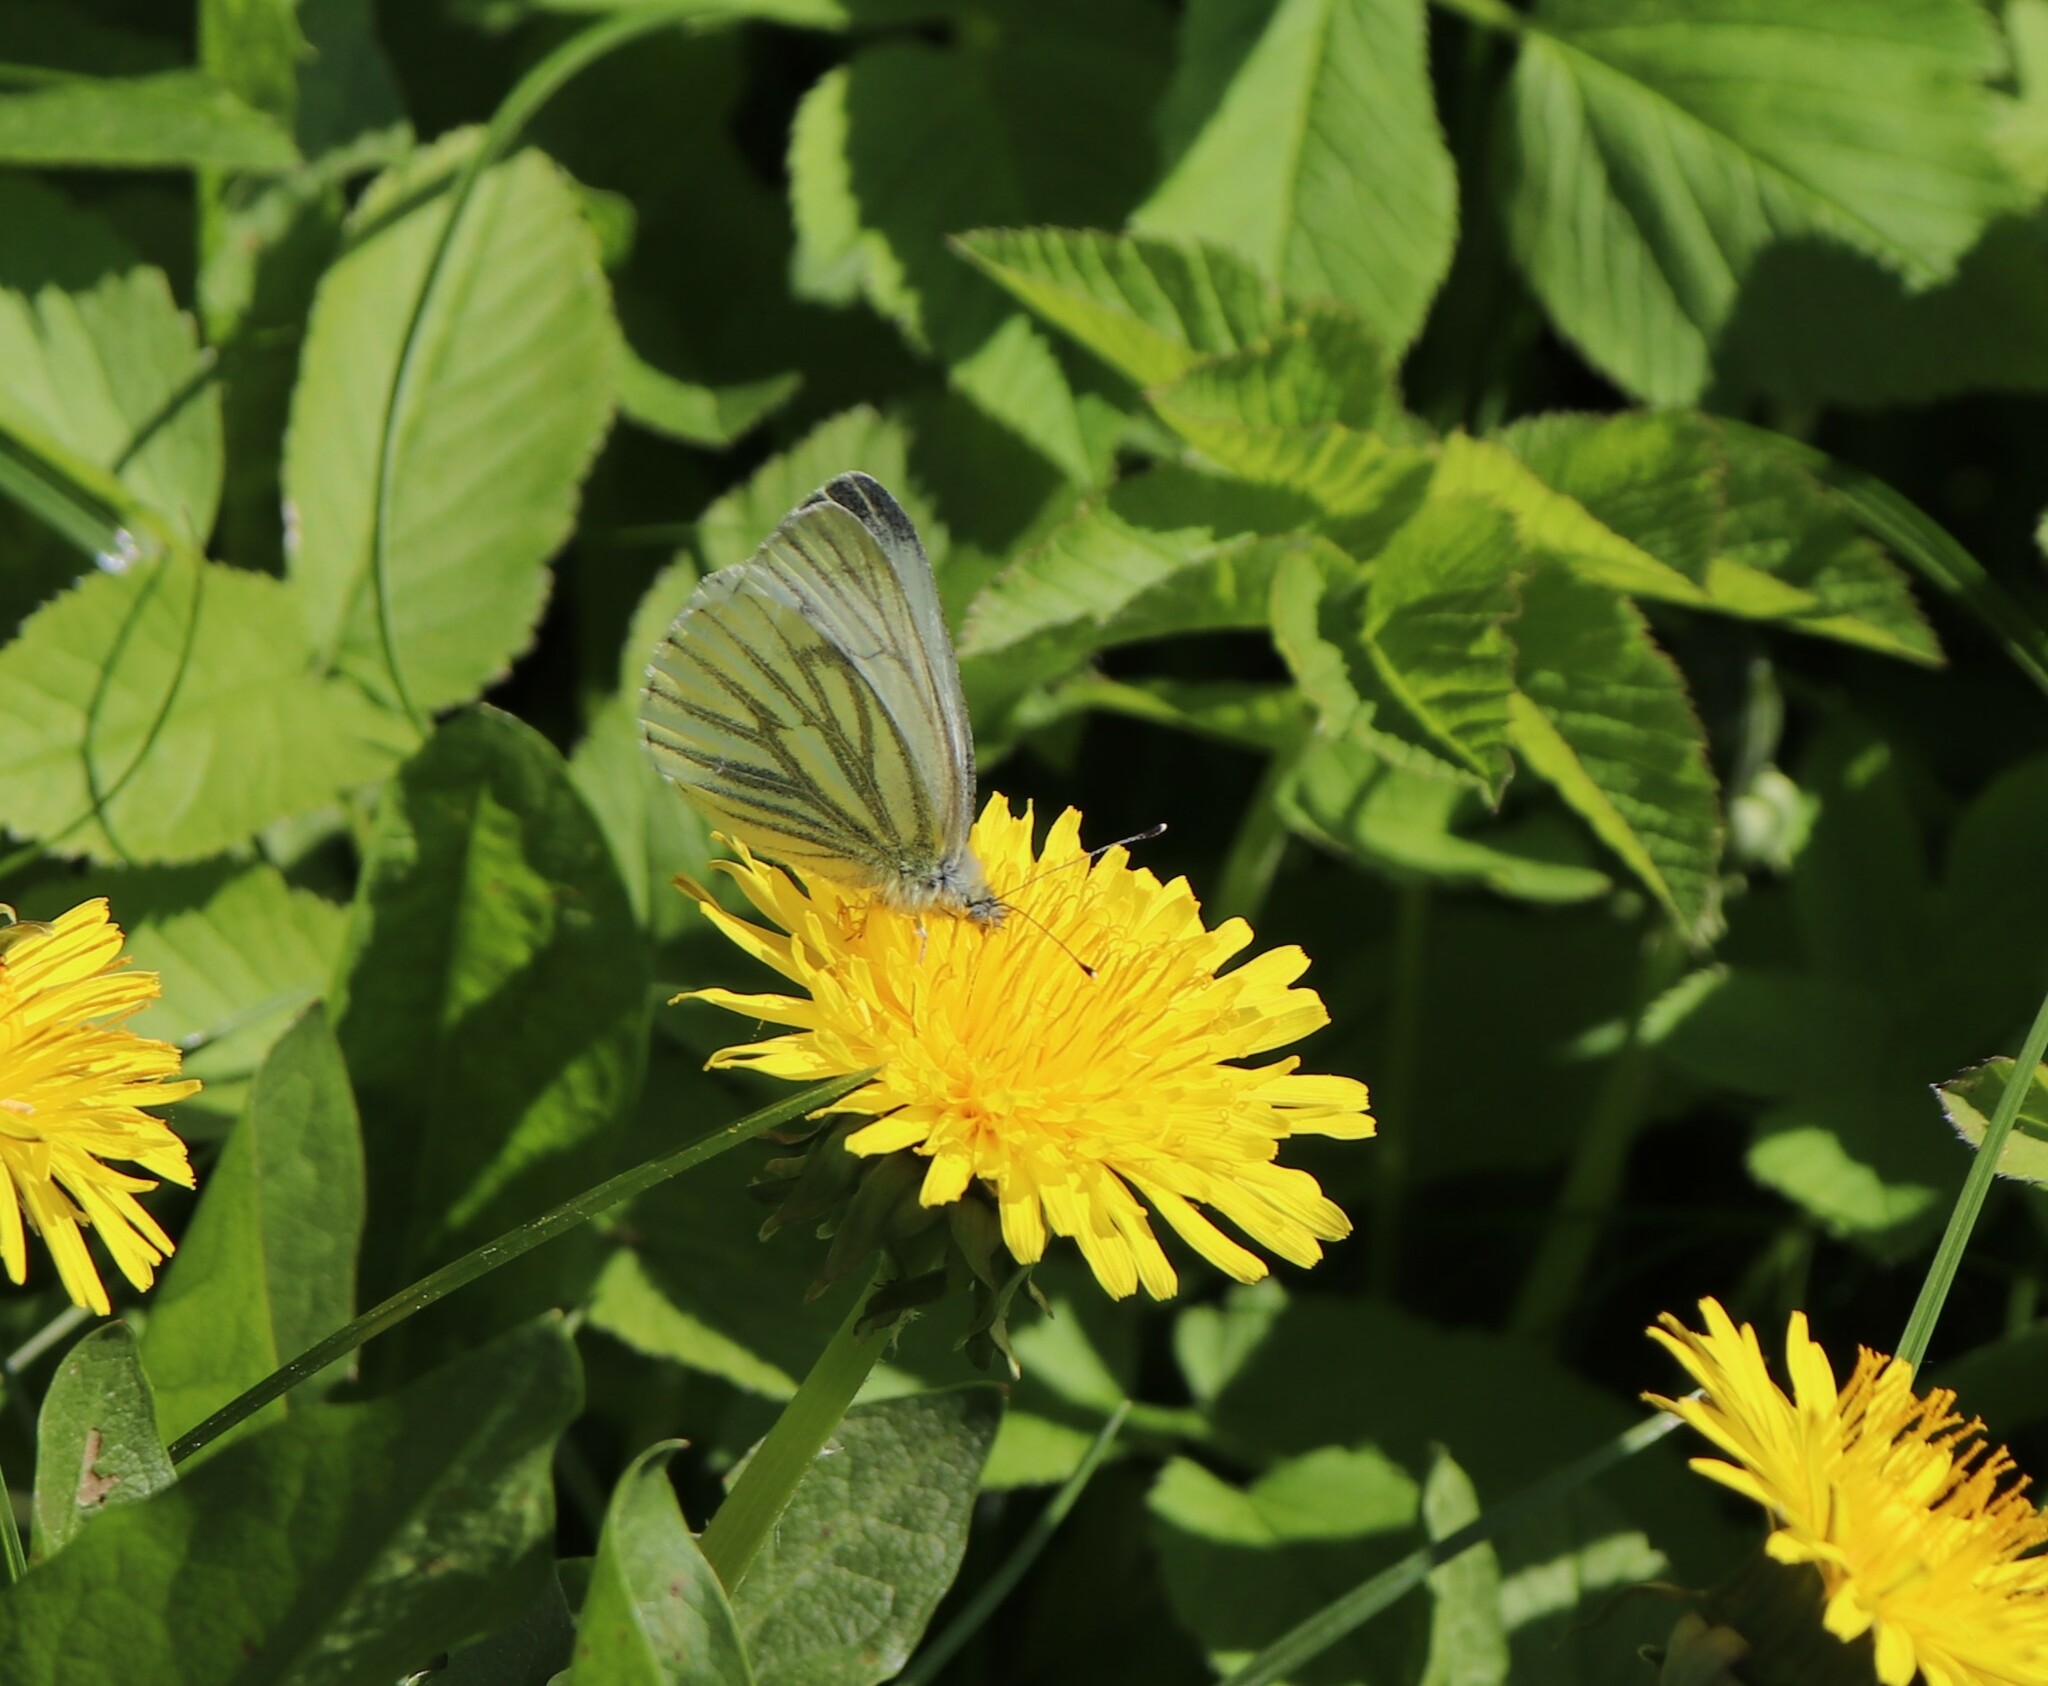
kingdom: Animalia
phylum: Arthropoda
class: Insecta
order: Lepidoptera
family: Pieridae
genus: Pieris
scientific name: Pieris napi
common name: Green-veined white
